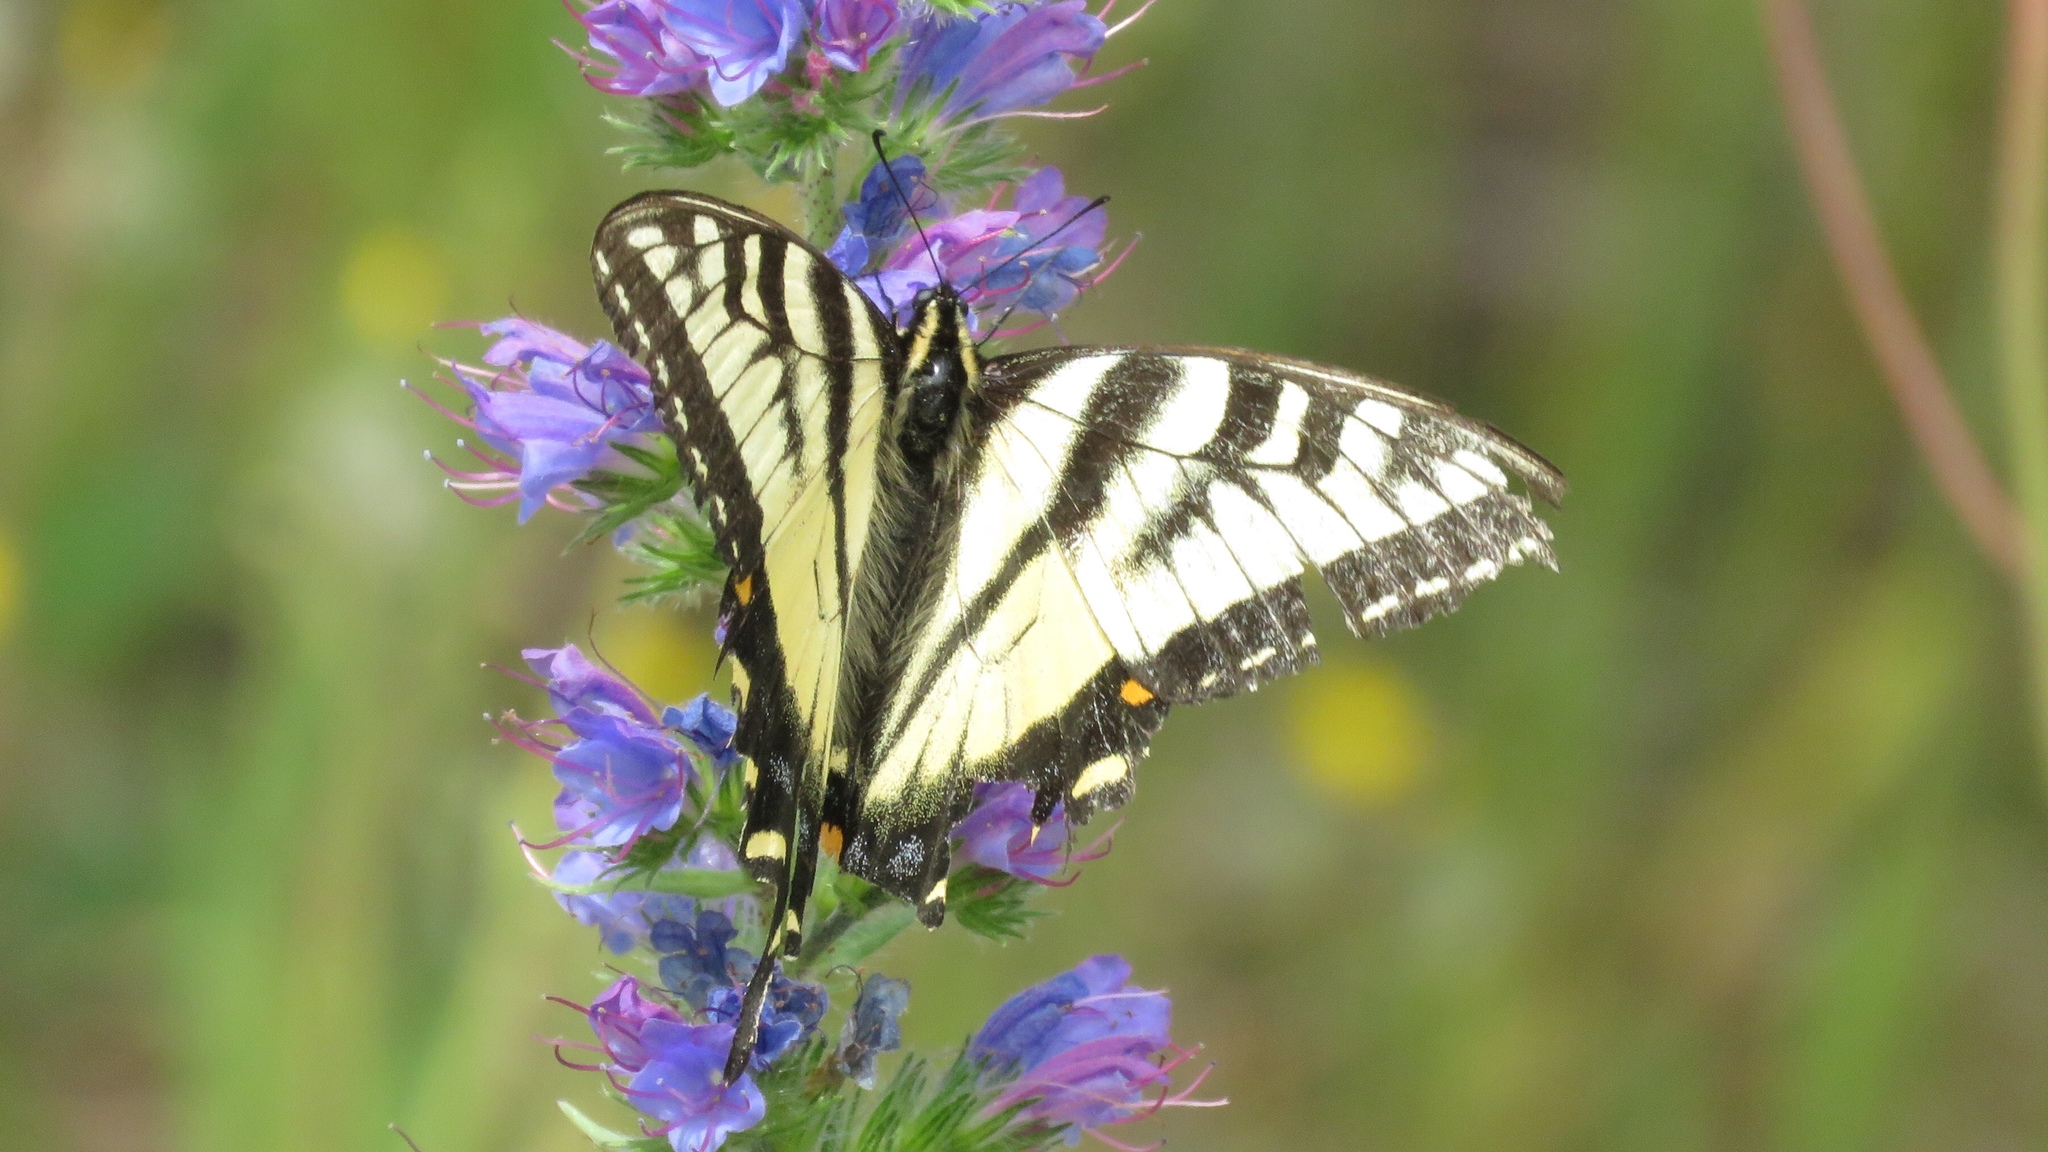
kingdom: Animalia
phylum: Arthropoda
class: Insecta
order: Lepidoptera
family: Papilionidae
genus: Papilio
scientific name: Papilio canadensis
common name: Canadian tiger swallowtail
